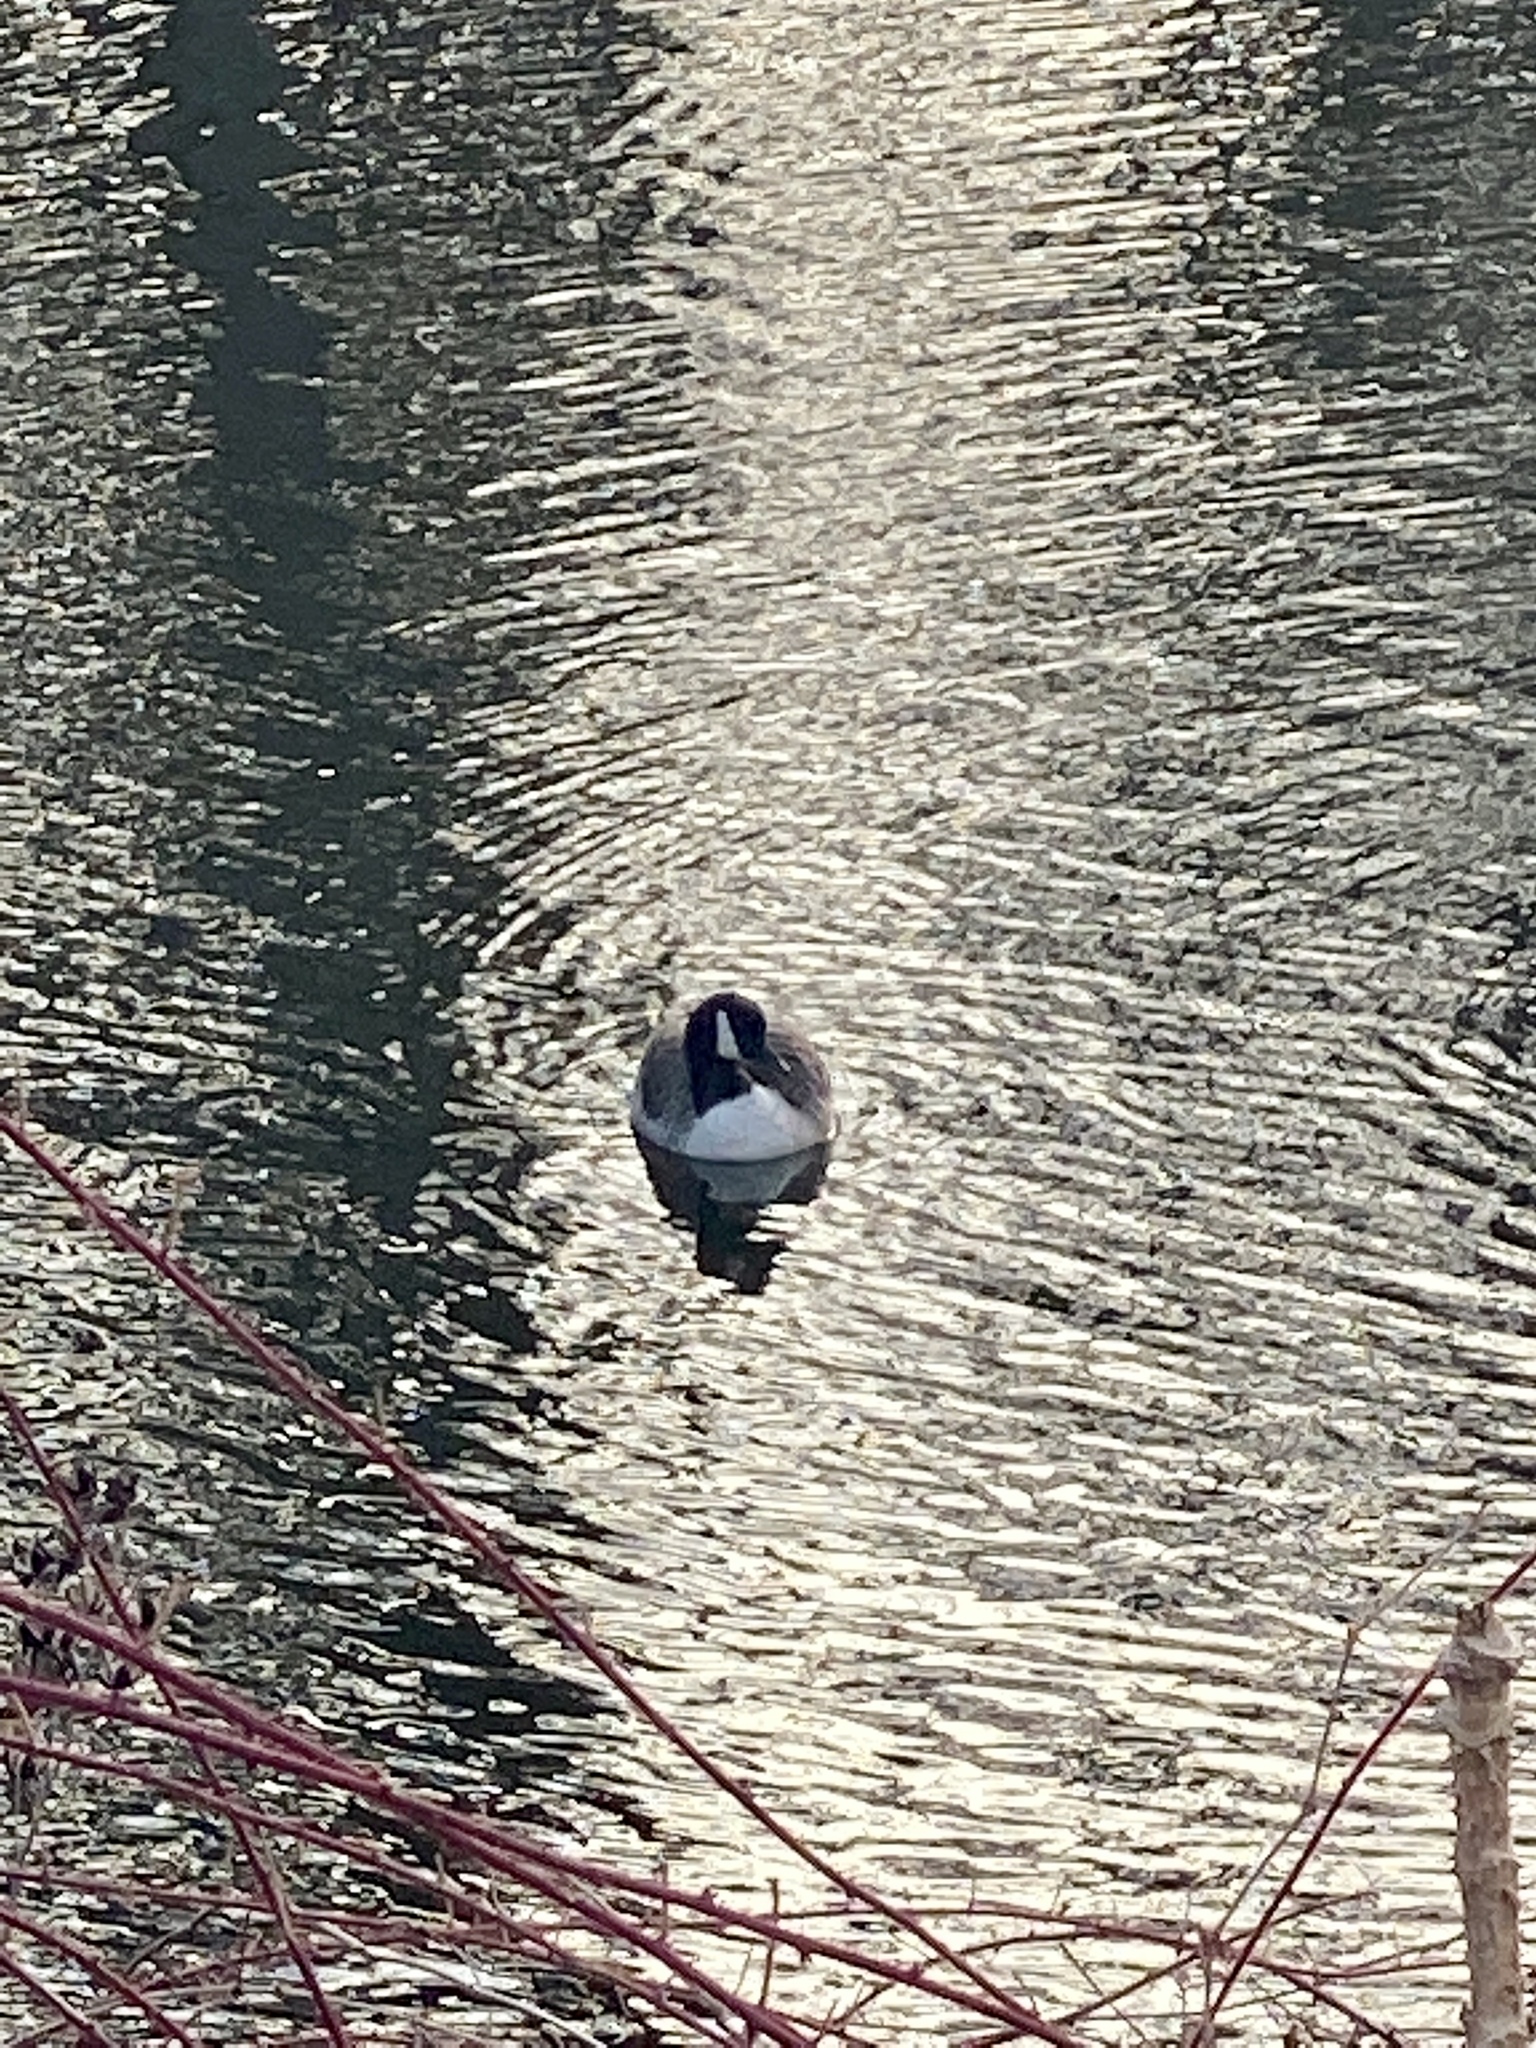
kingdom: Animalia
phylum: Chordata
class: Aves
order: Anseriformes
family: Anatidae
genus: Branta
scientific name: Branta canadensis
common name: Canada goose
